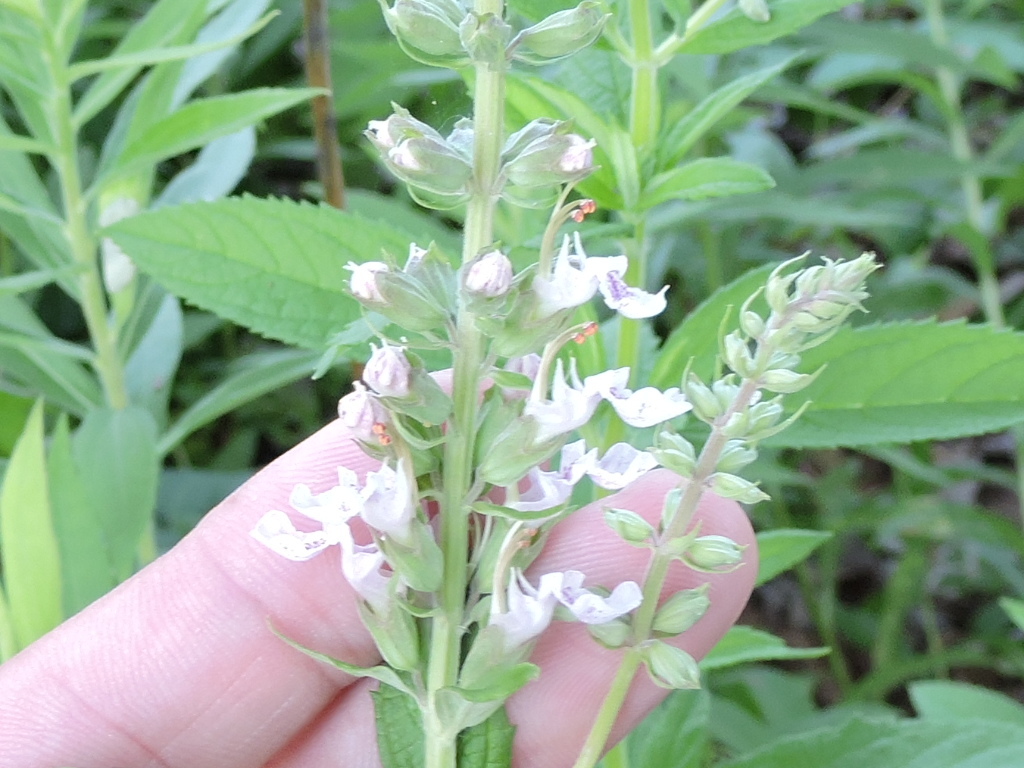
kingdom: Plantae
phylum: Tracheophyta
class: Magnoliopsida
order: Lamiales
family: Lamiaceae
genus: Teucrium
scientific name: Teucrium canadense
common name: American germander
